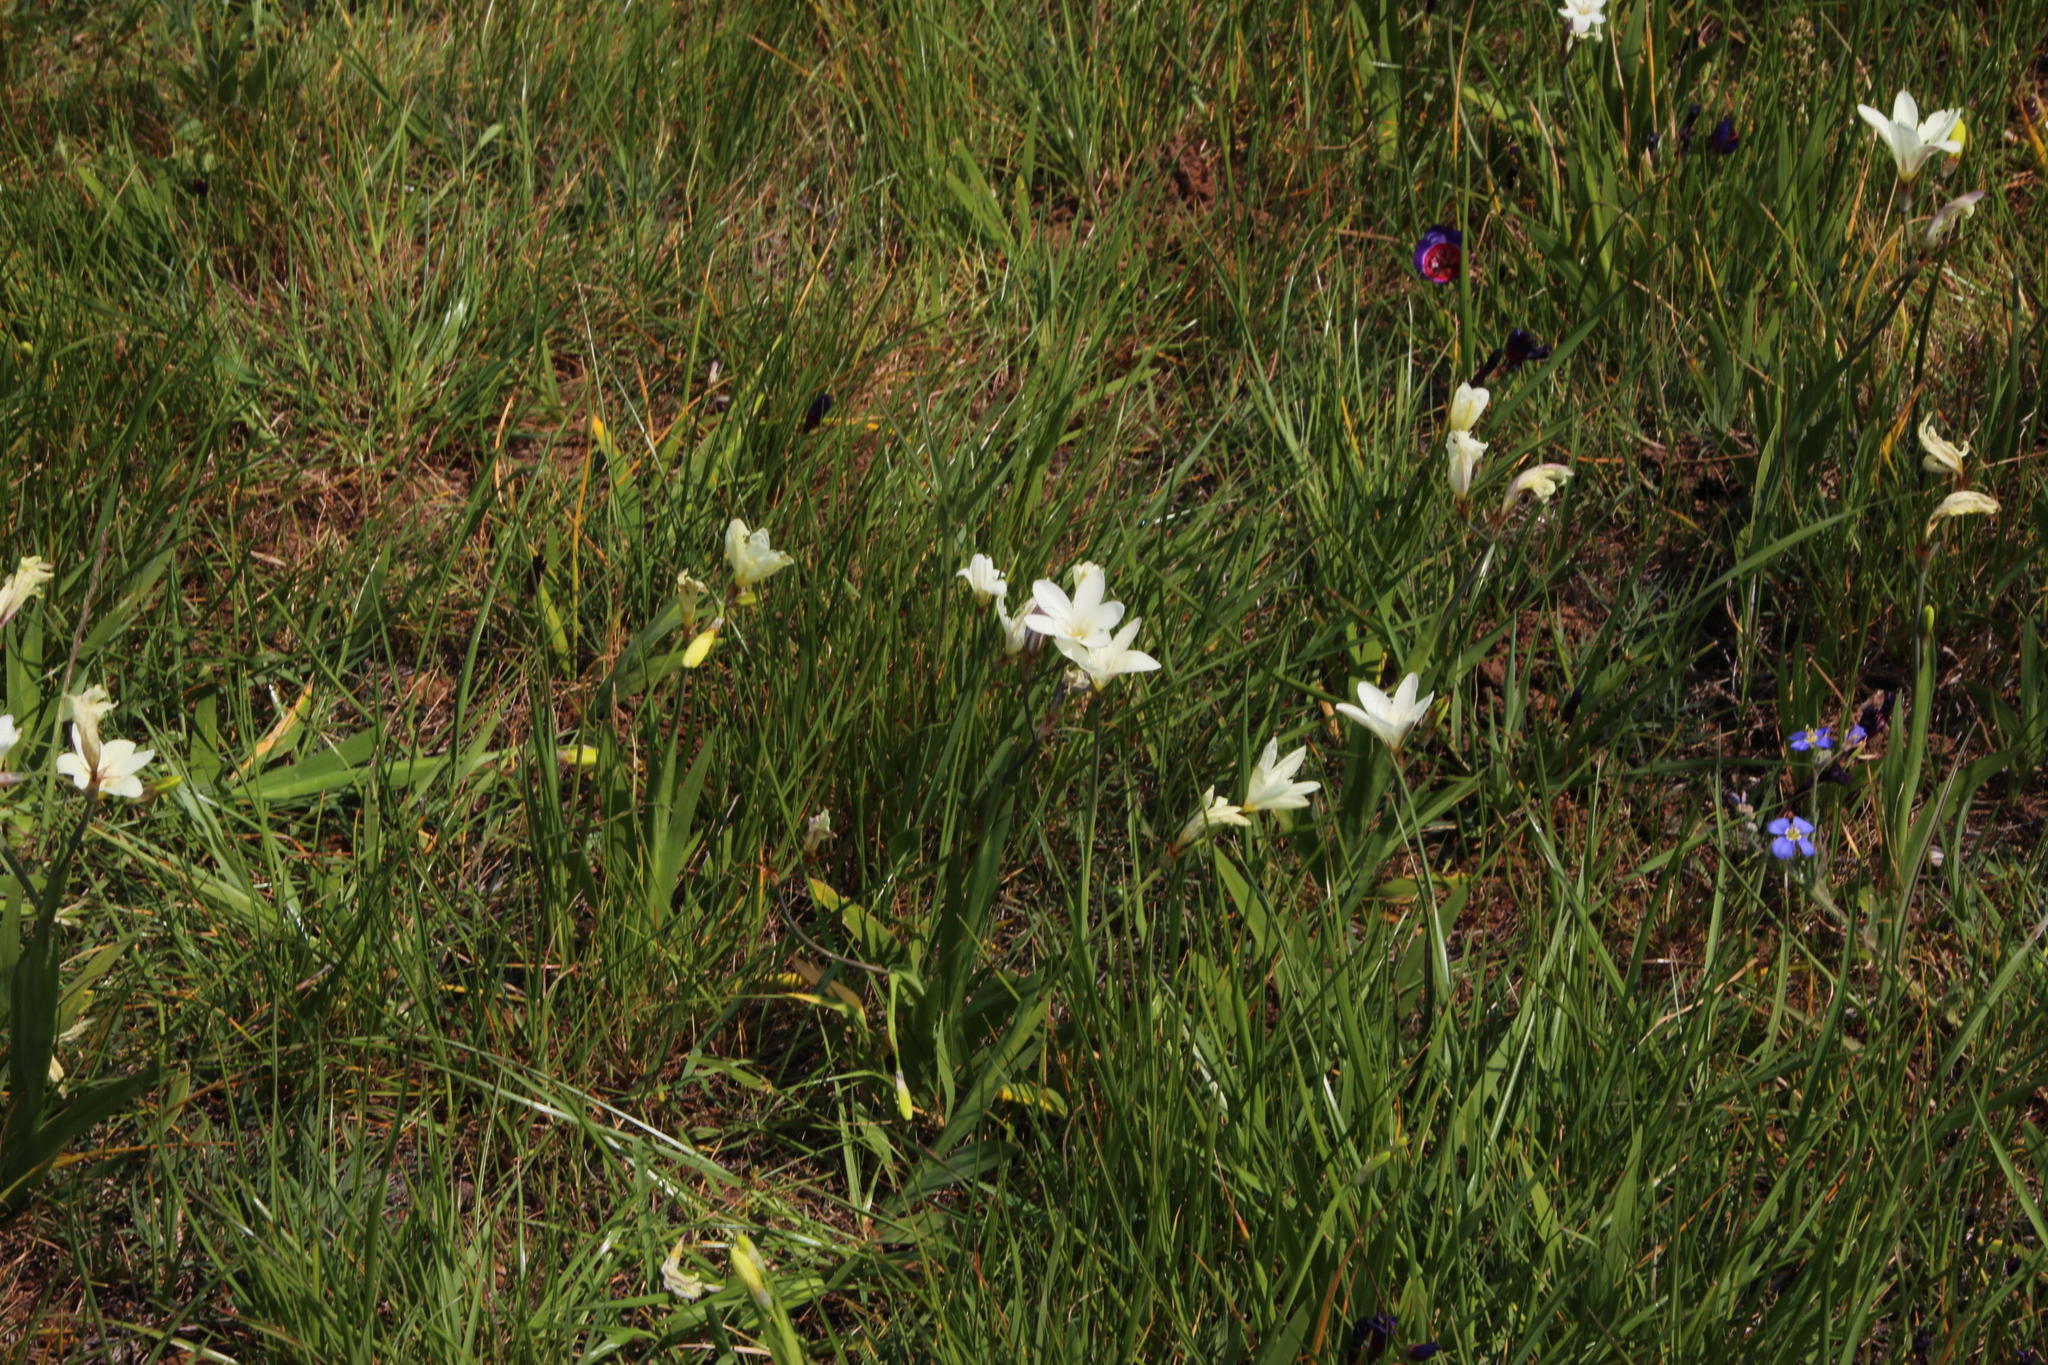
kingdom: Plantae
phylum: Tracheophyta
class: Liliopsida
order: Asparagales
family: Iridaceae
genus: Sparaxis
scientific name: Sparaxis bulbifera
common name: Harlequin-flower
